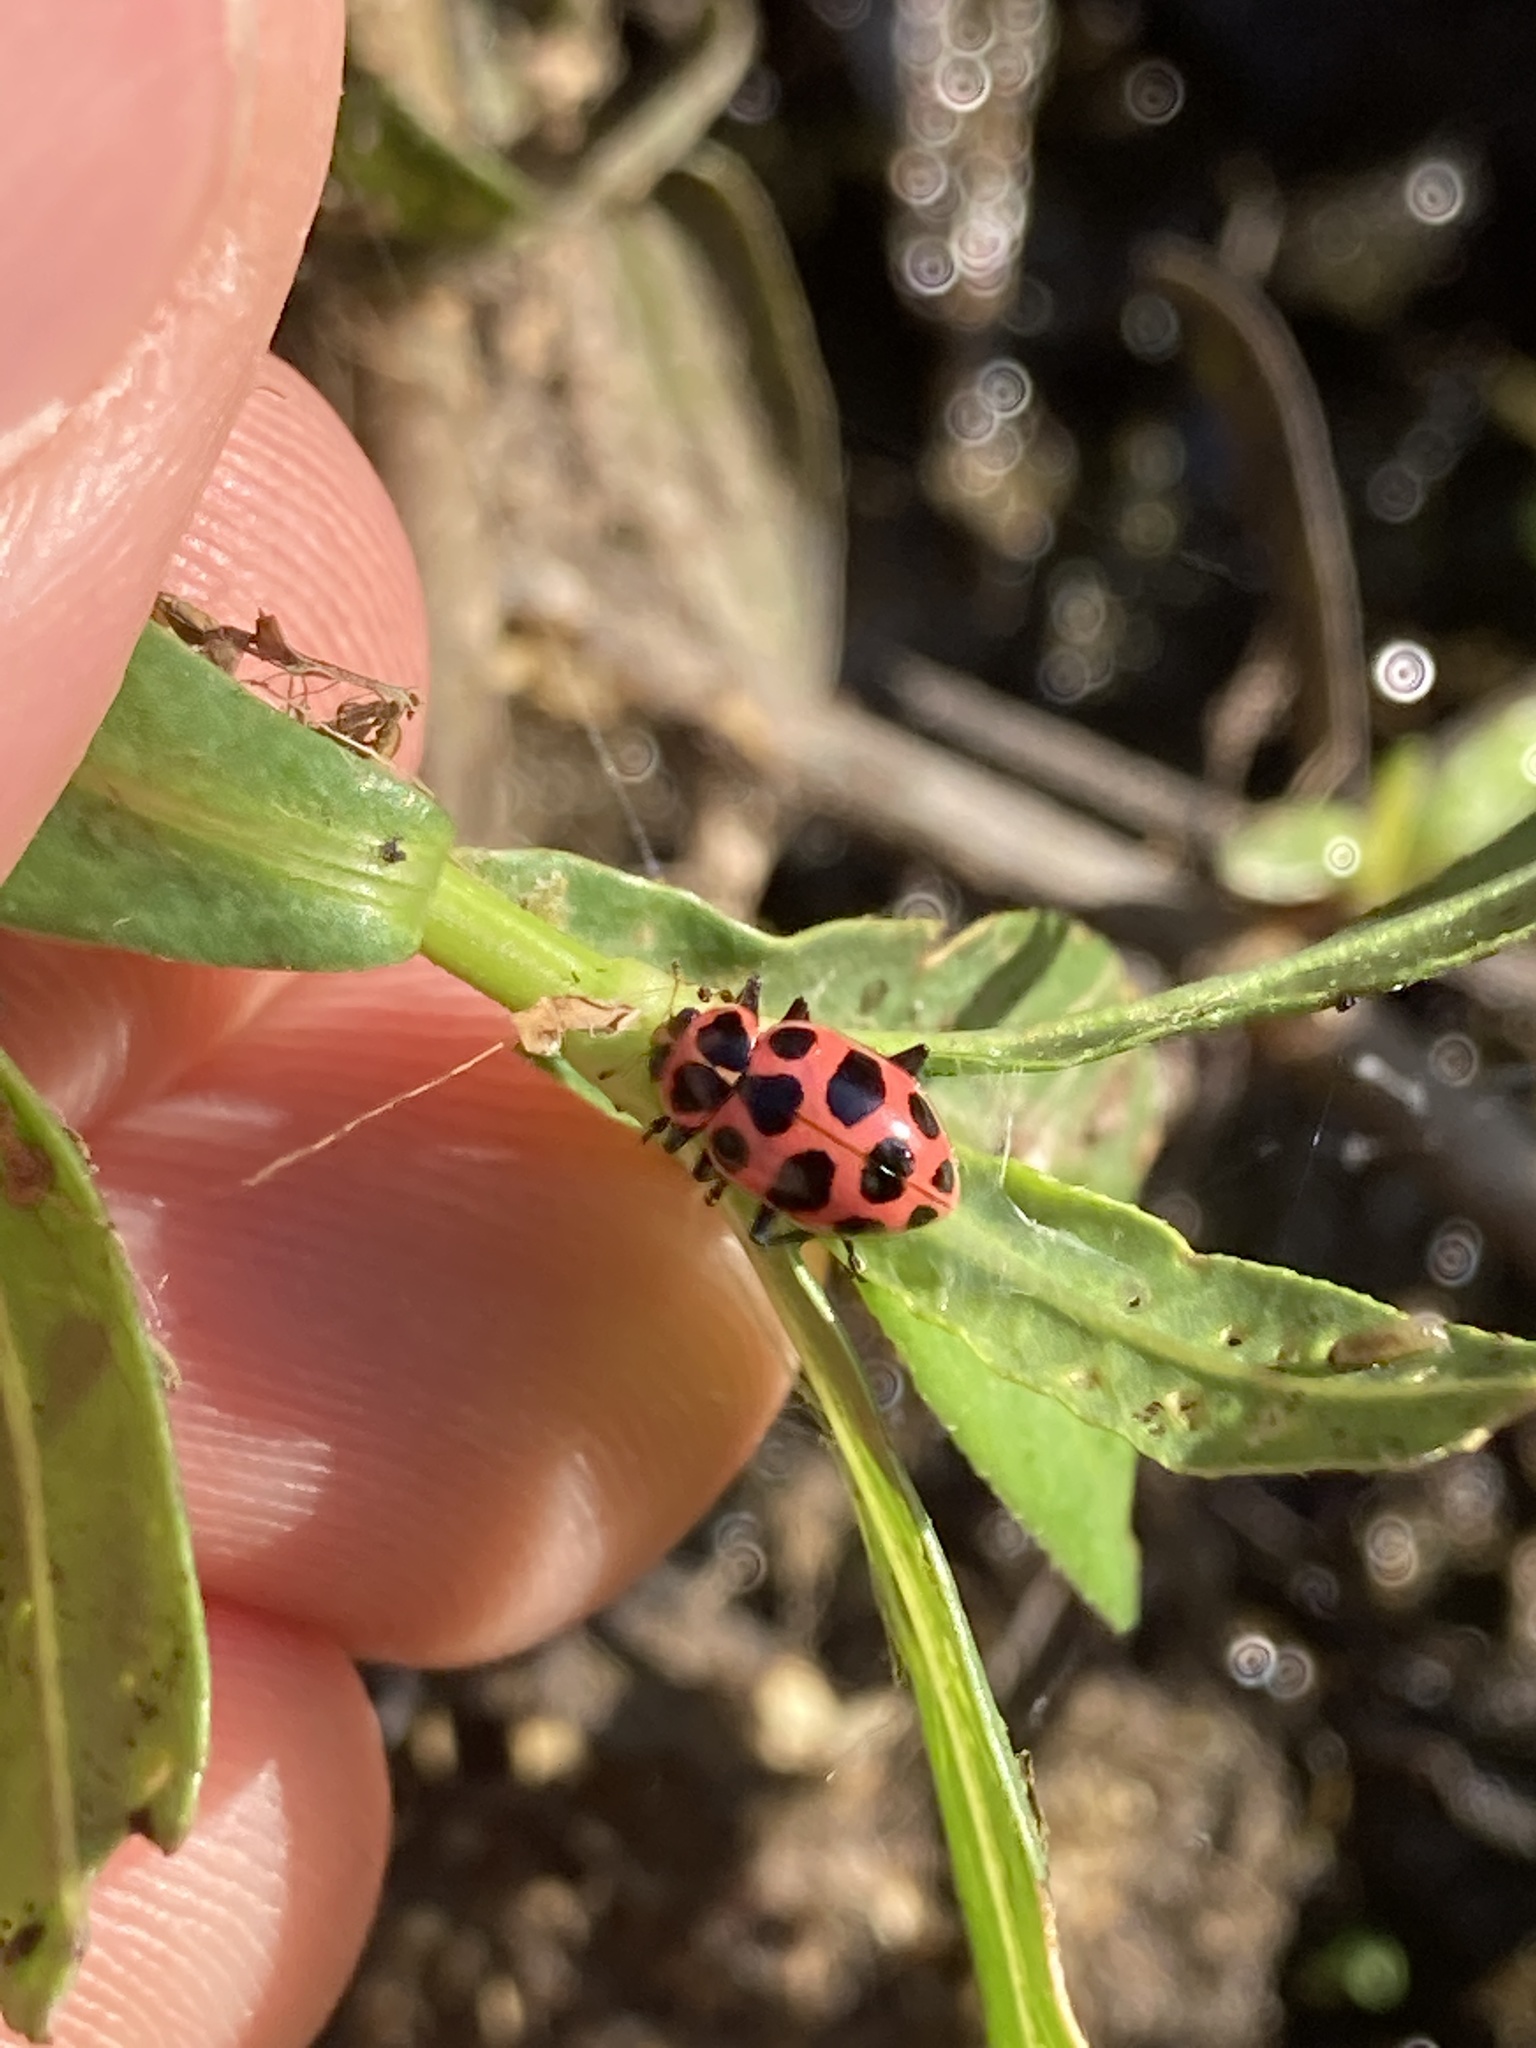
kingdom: Animalia
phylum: Arthropoda
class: Insecta
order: Coleoptera
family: Coccinellidae
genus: Coleomegilla
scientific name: Coleomegilla maculata
